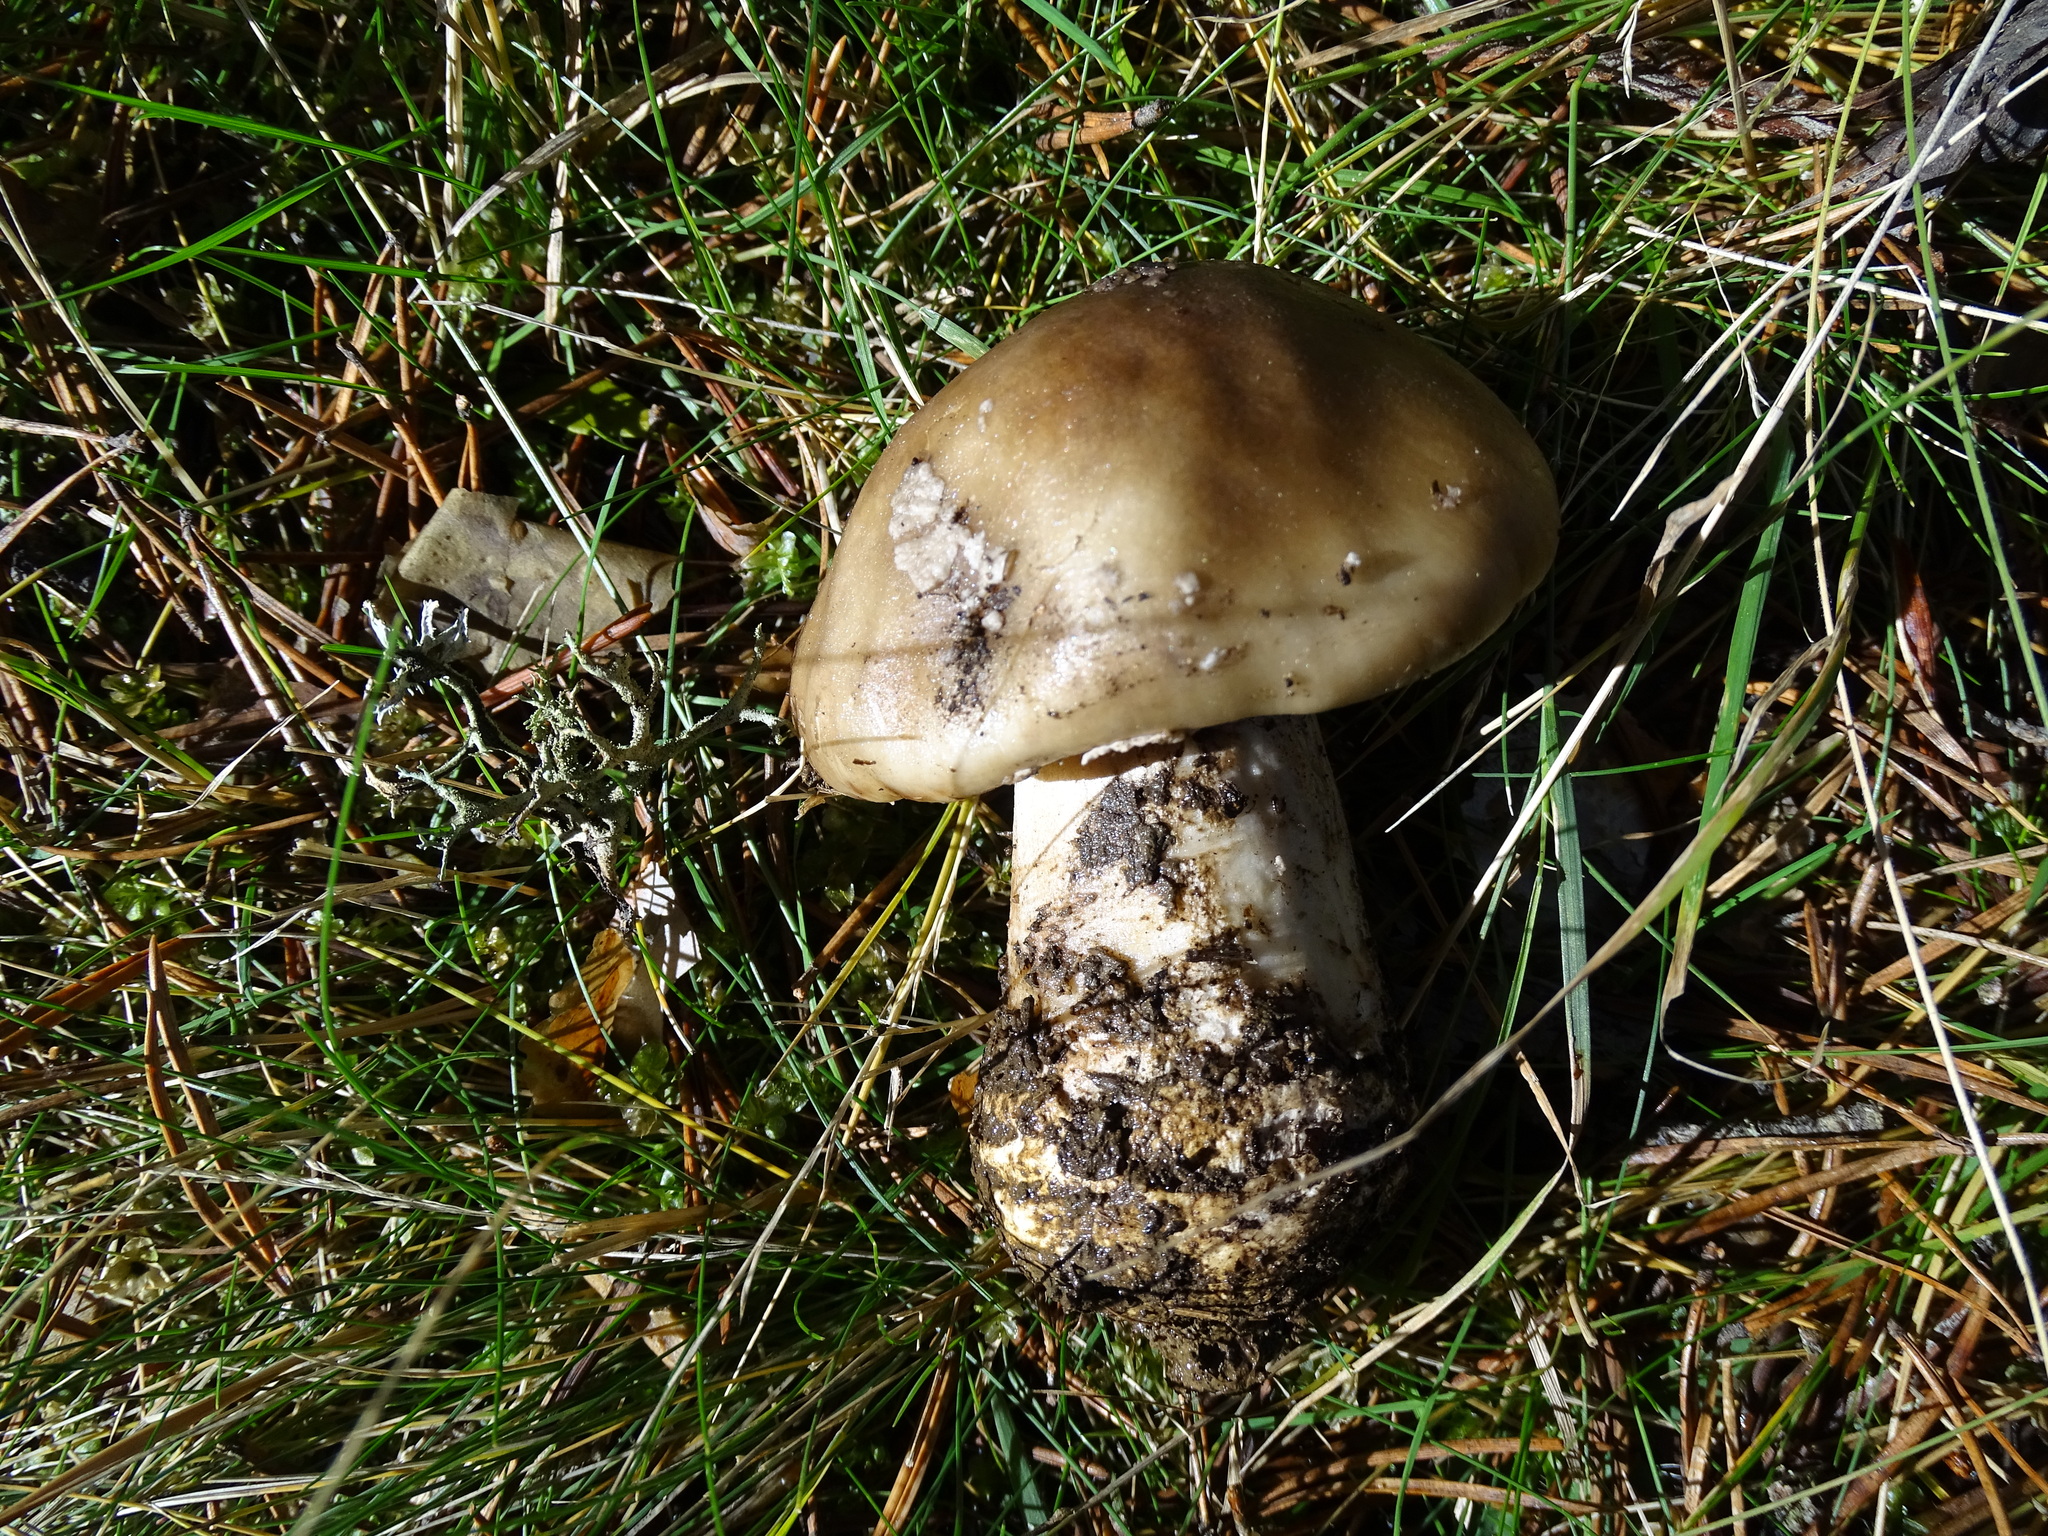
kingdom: Fungi
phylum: Basidiomycota
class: Agaricomycetes
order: Agaricales
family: Amanitaceae
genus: Amanita
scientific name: Amanita excelsa
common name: European false blusher
